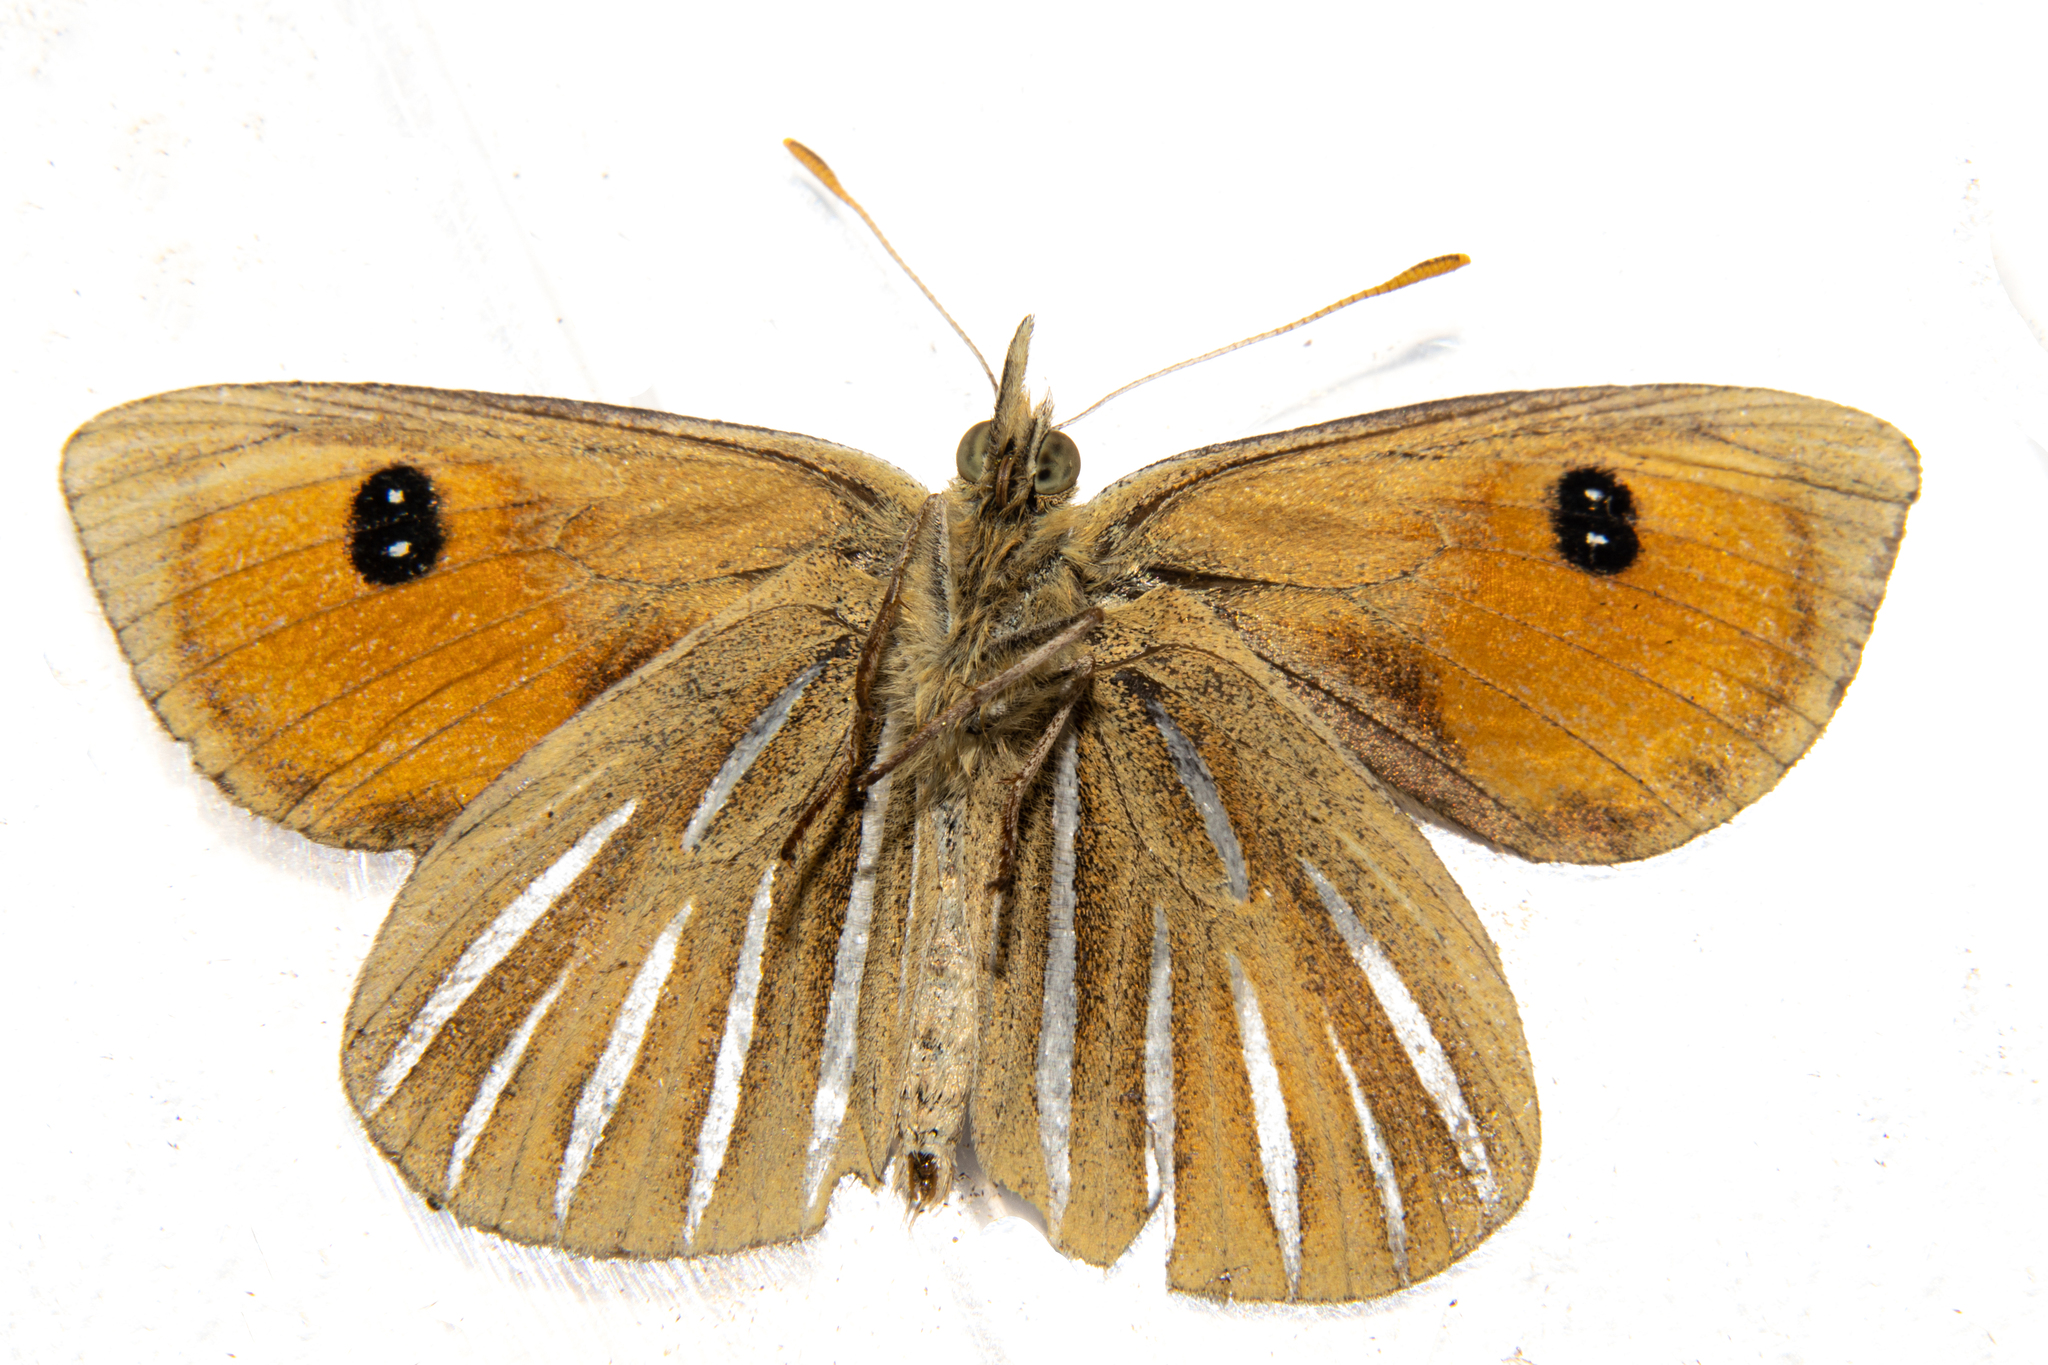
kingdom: Animalia
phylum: Arthropoda
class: Insecta
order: Lepidoptera
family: Nymphalidae
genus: Argyrophenga
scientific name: Argyrophenga janitae
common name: Janita's tussock
